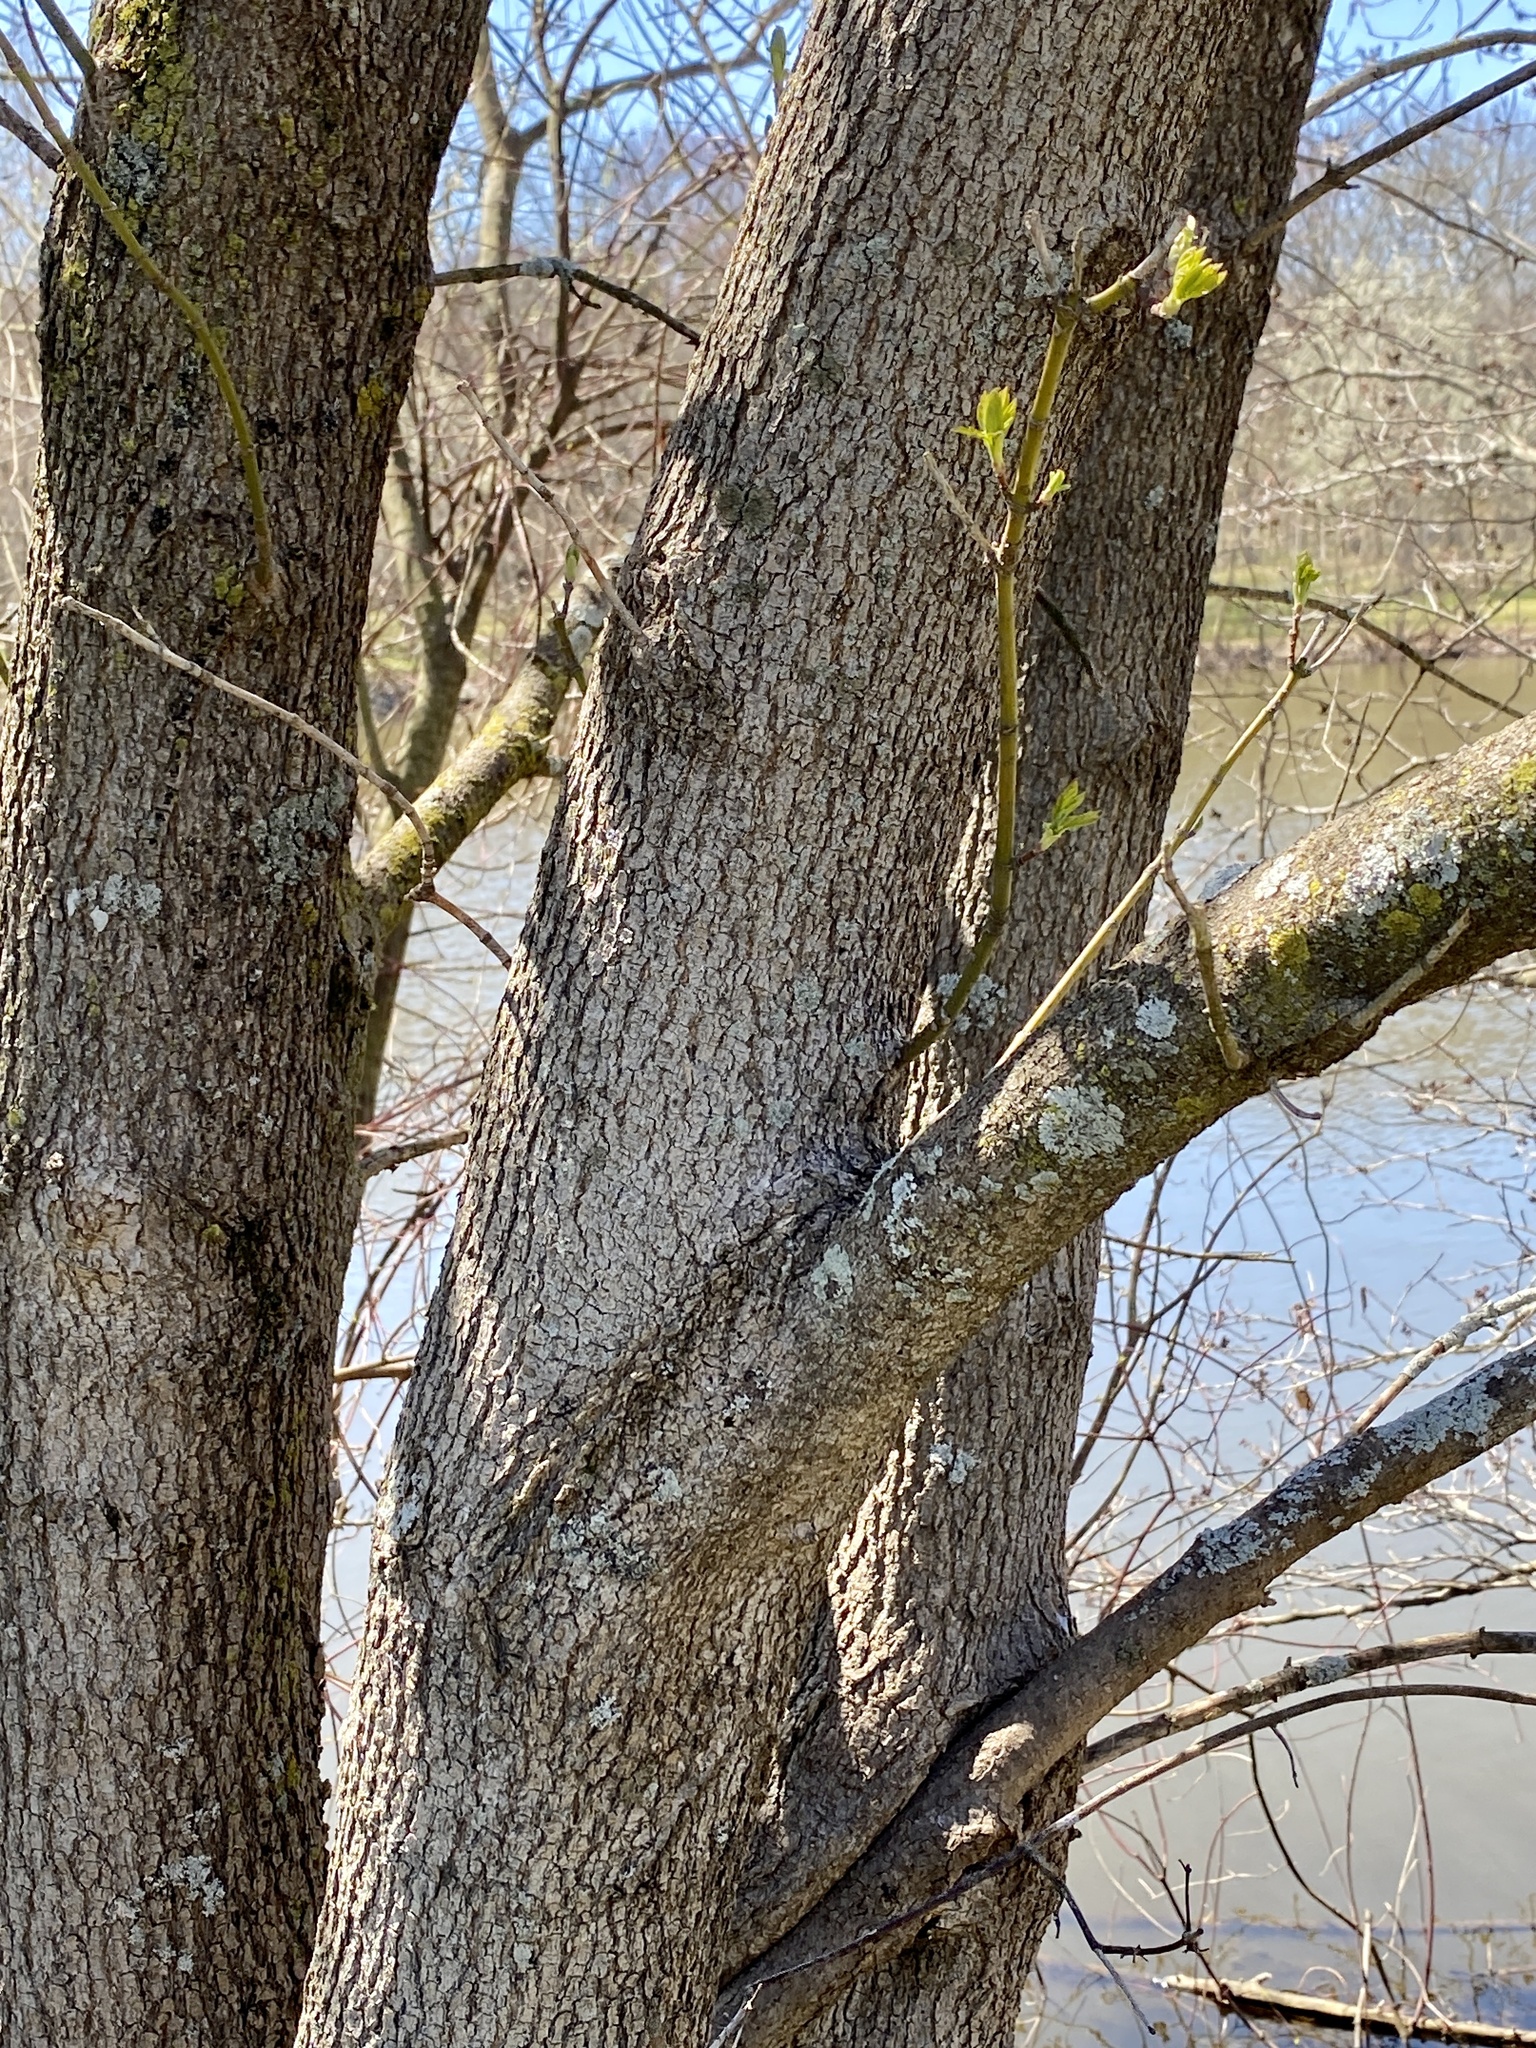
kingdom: Plantae
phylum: Tracheophyta
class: Magnoliopsida
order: Sapindales
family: Sapindaceae
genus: Acer
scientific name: Acer negundo
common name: Ashleaf maple
